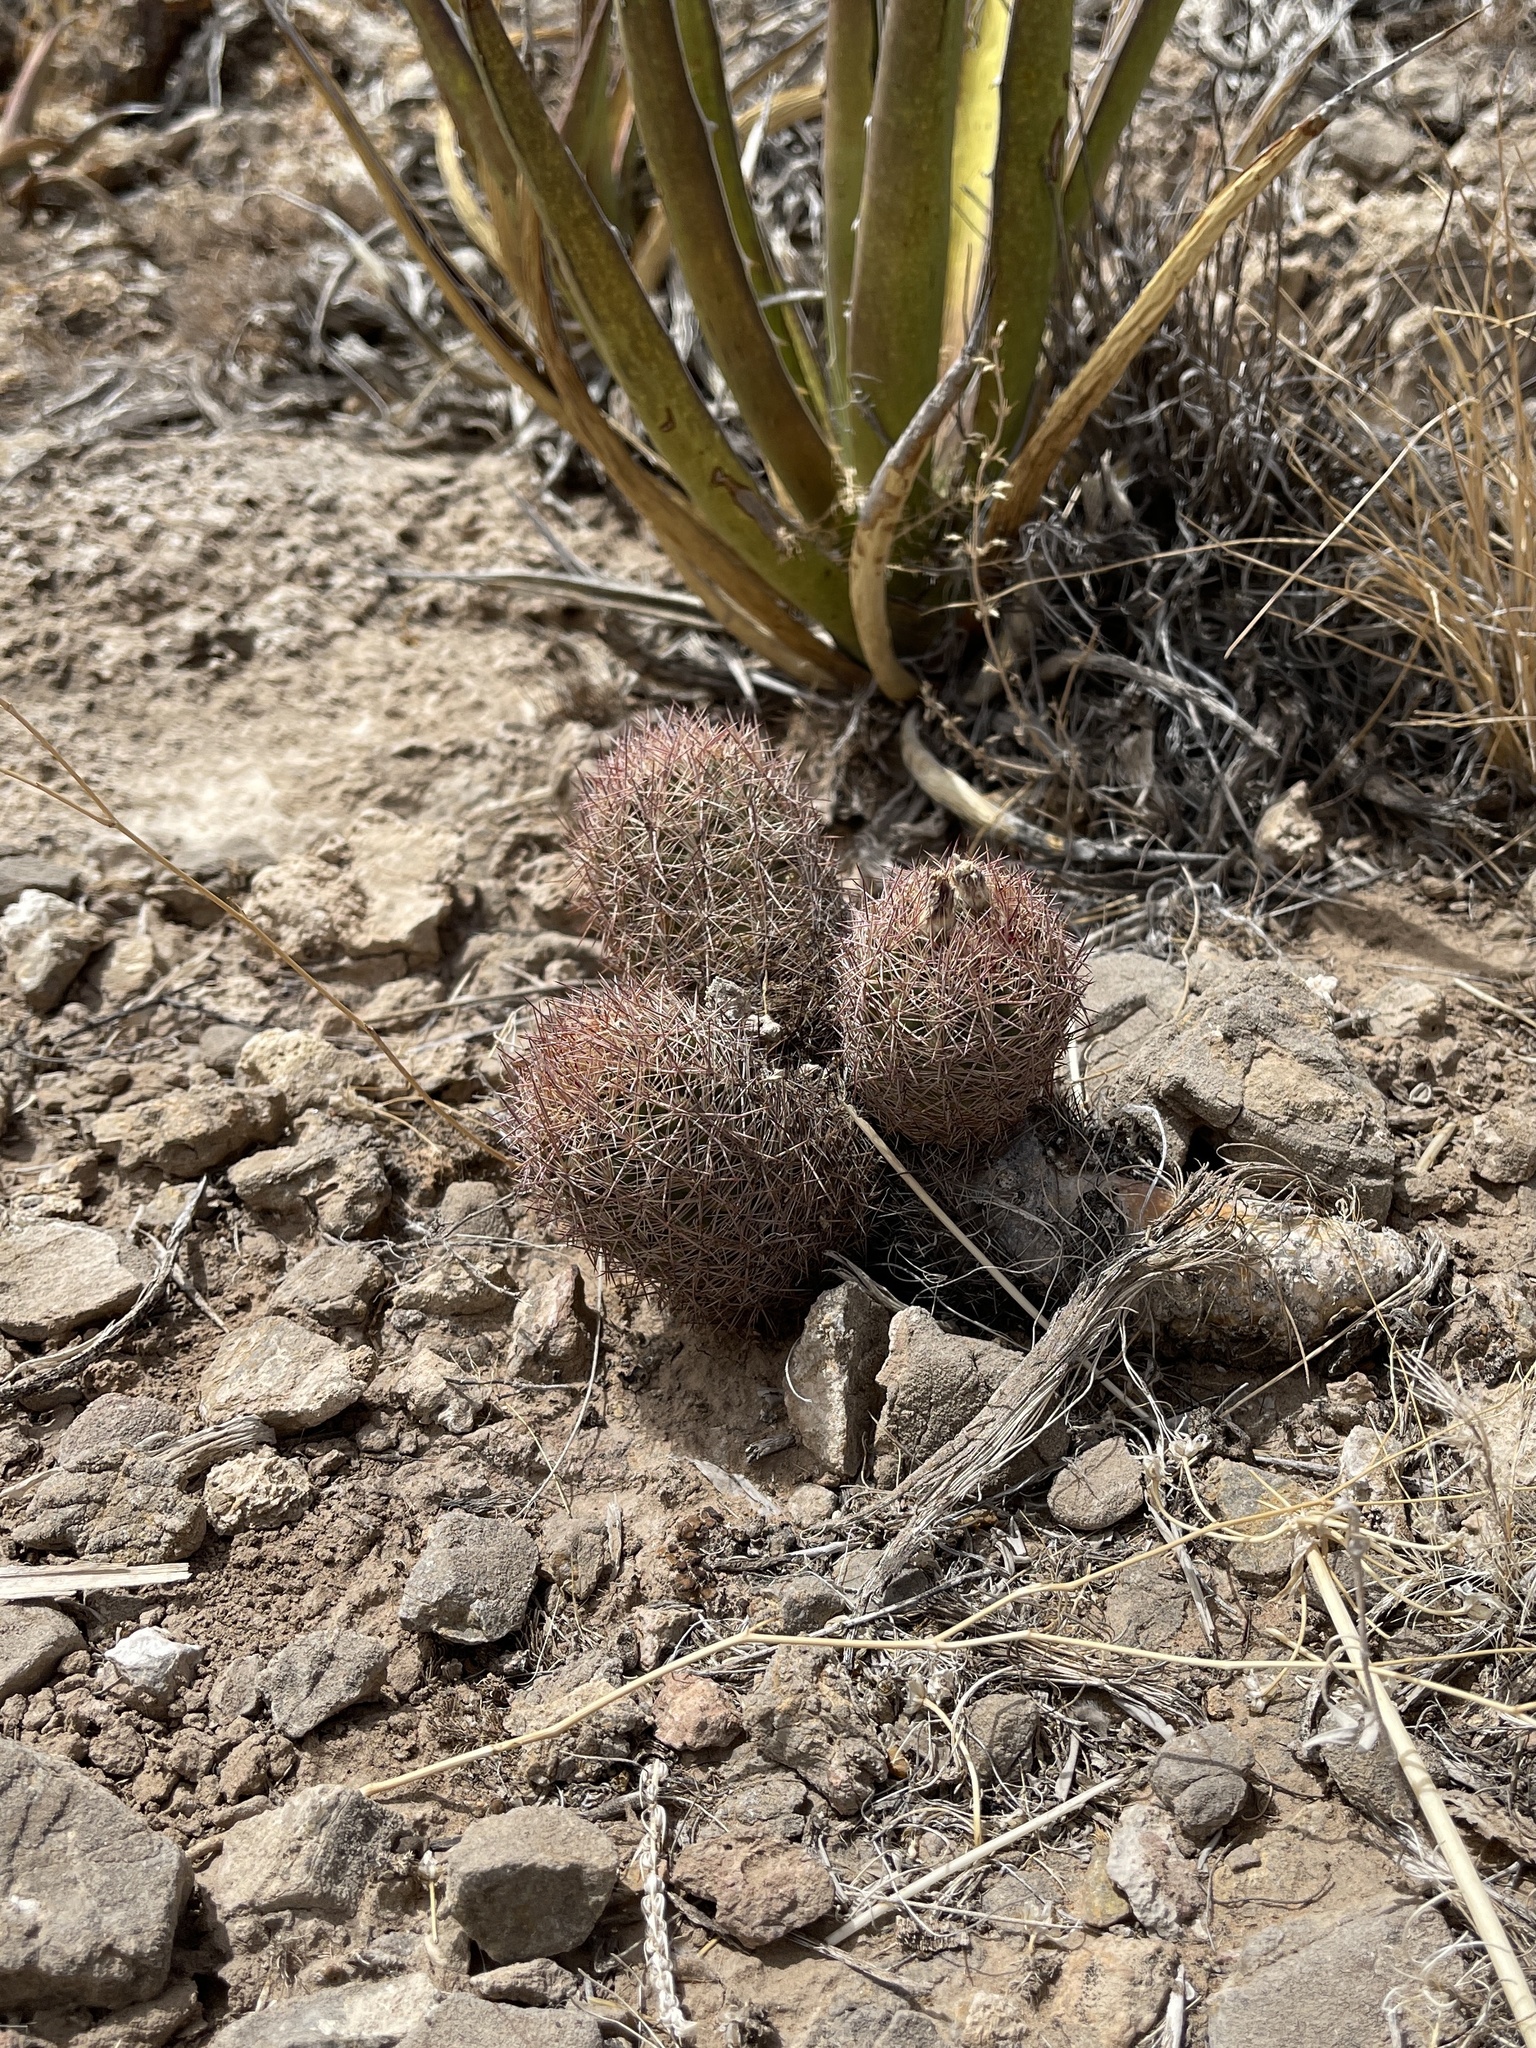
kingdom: Plantae
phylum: Tracheophyta
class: Magnoliopsida
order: Caryophyllales
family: Cactaceae
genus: Sclerocactus
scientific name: Sclerocactus intertextus
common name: White fish-hook cactus
